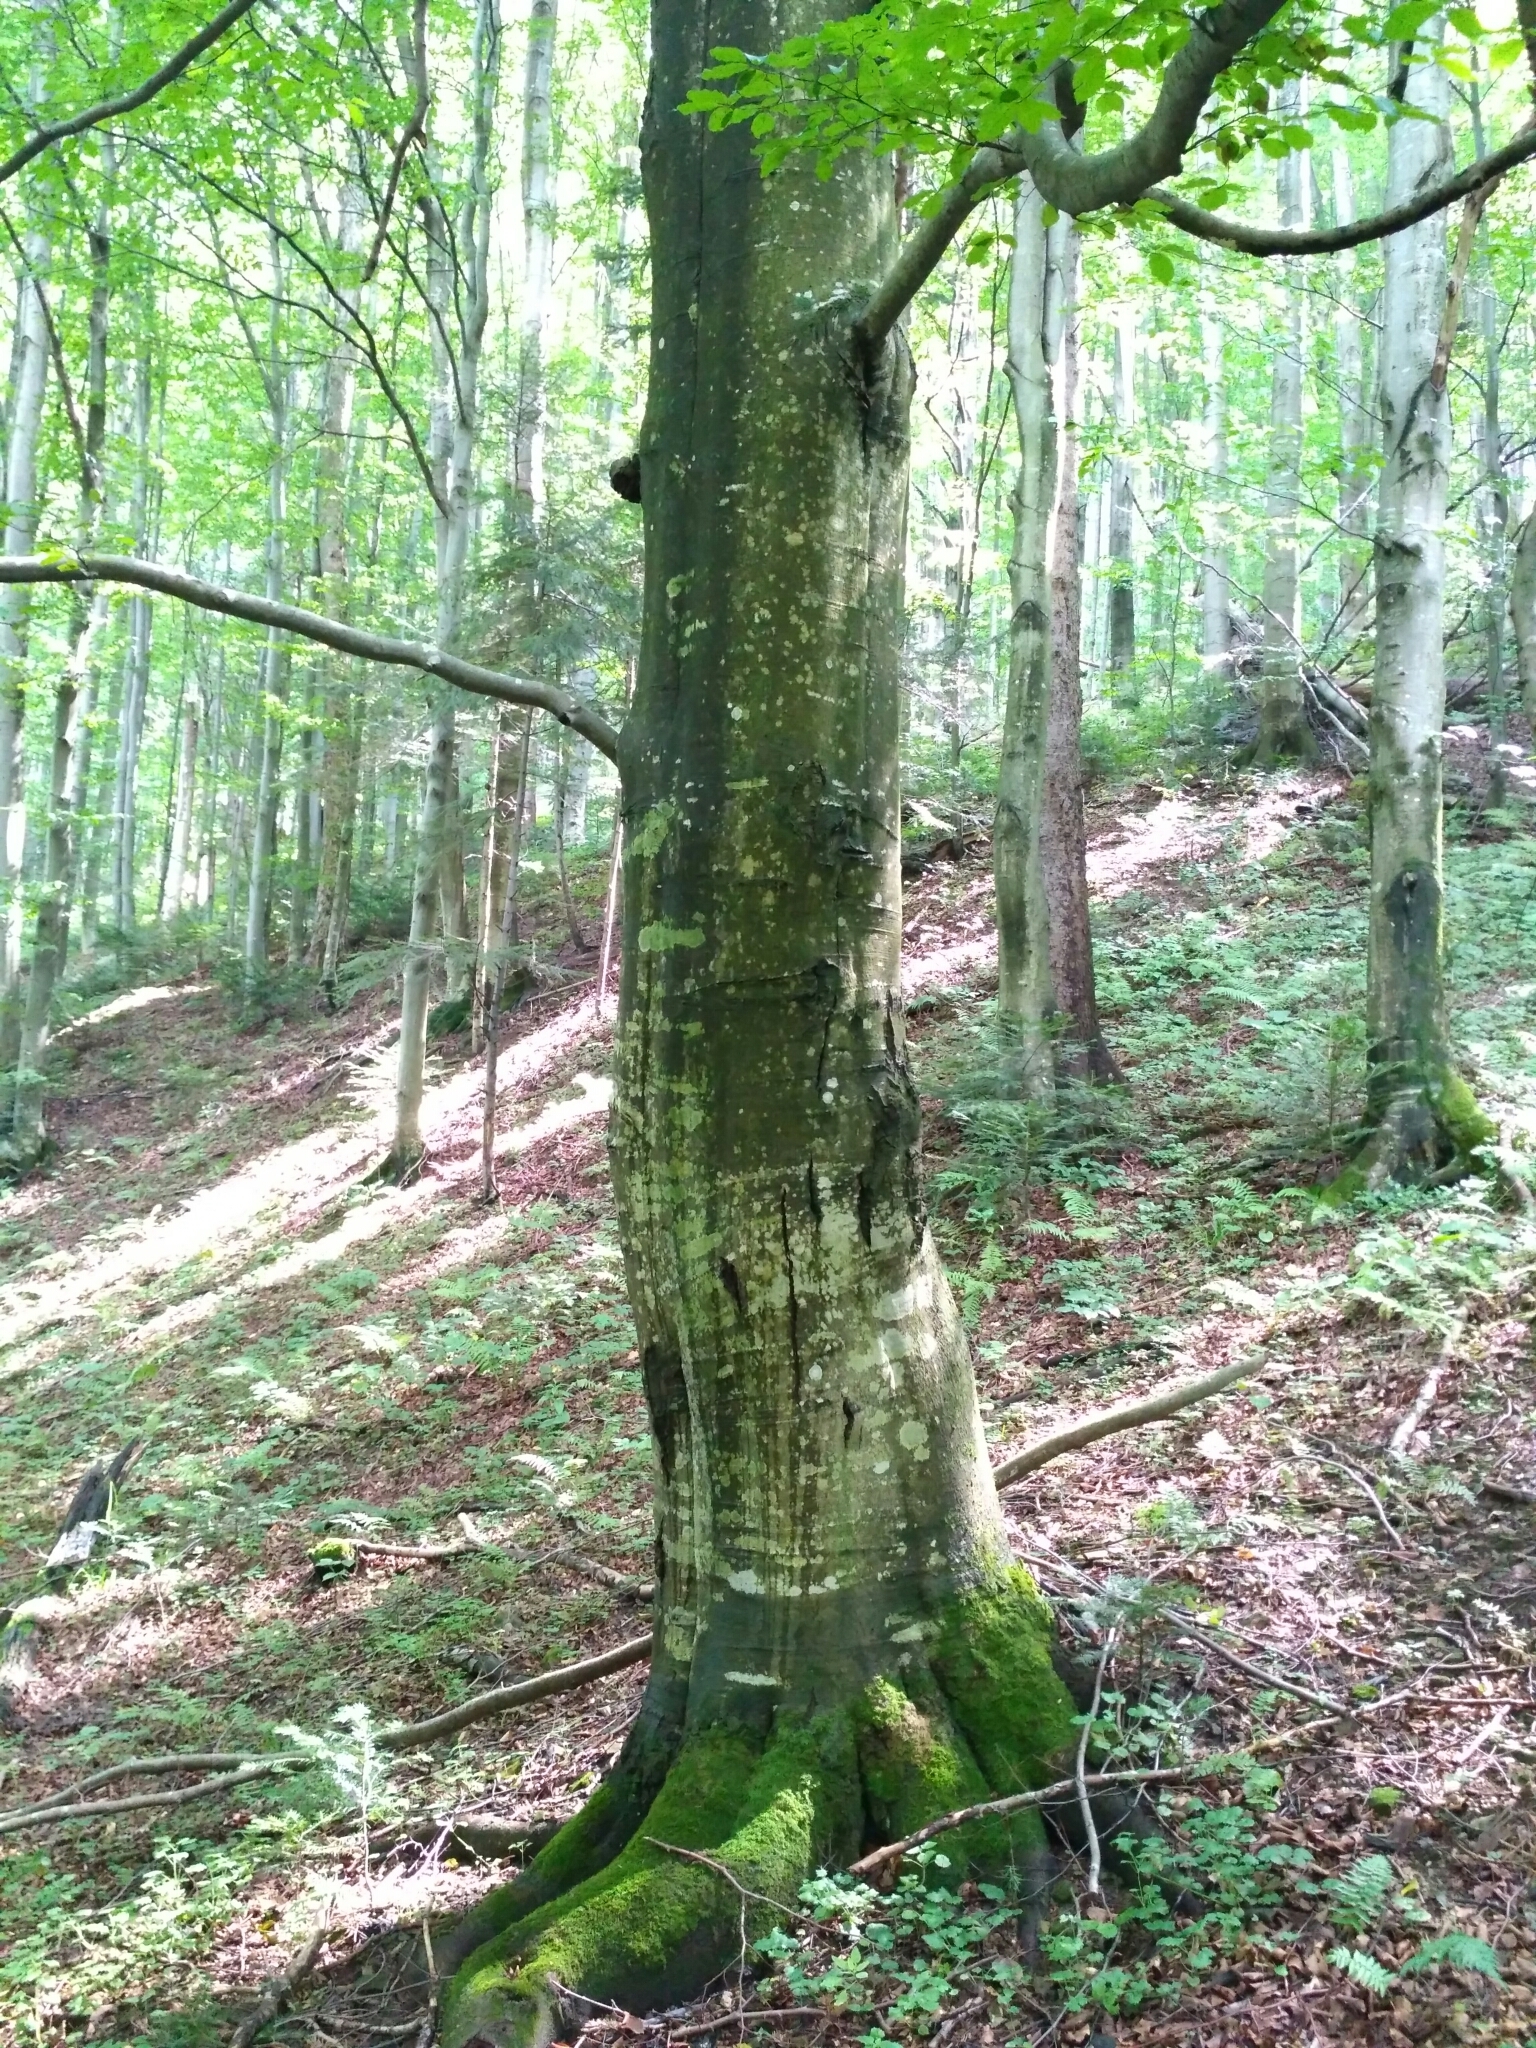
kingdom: Plantae
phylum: Tracheophyta
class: Magnoliopsida
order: Fagales
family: Fagaceae
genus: Fagus
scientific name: Fagus sylvatica
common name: Beech
